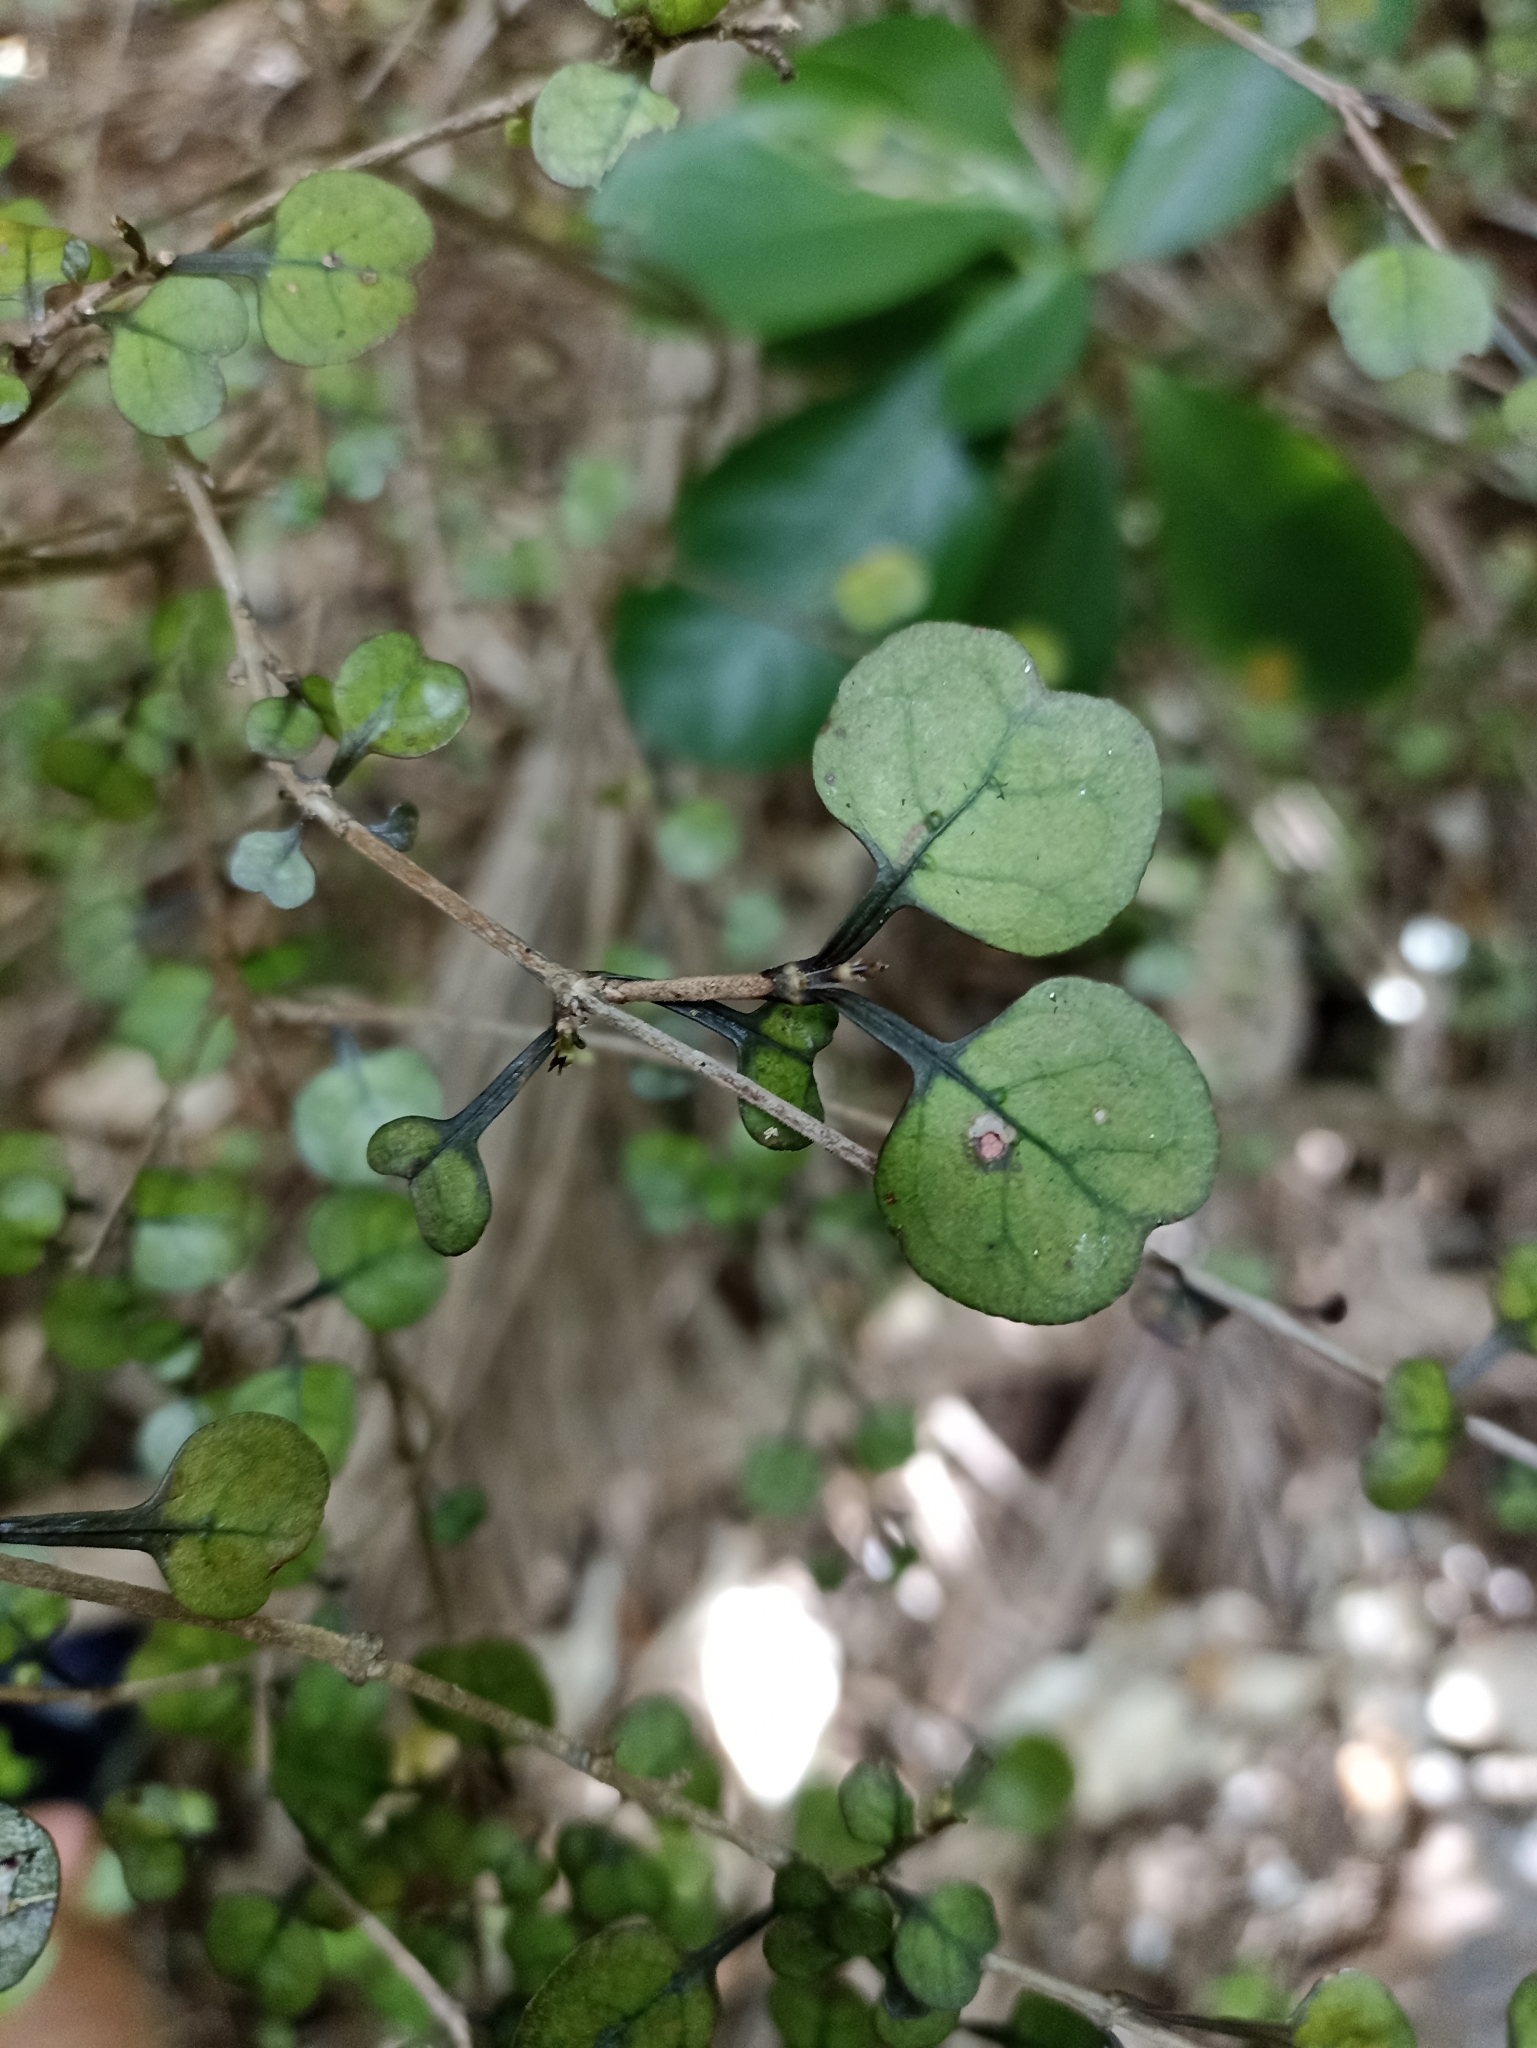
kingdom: Plantae
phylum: Tracheophyta
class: Magnoliopsida
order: Gentianales
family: Rubiaceae
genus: Coprosma
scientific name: Coprosma spathulata
